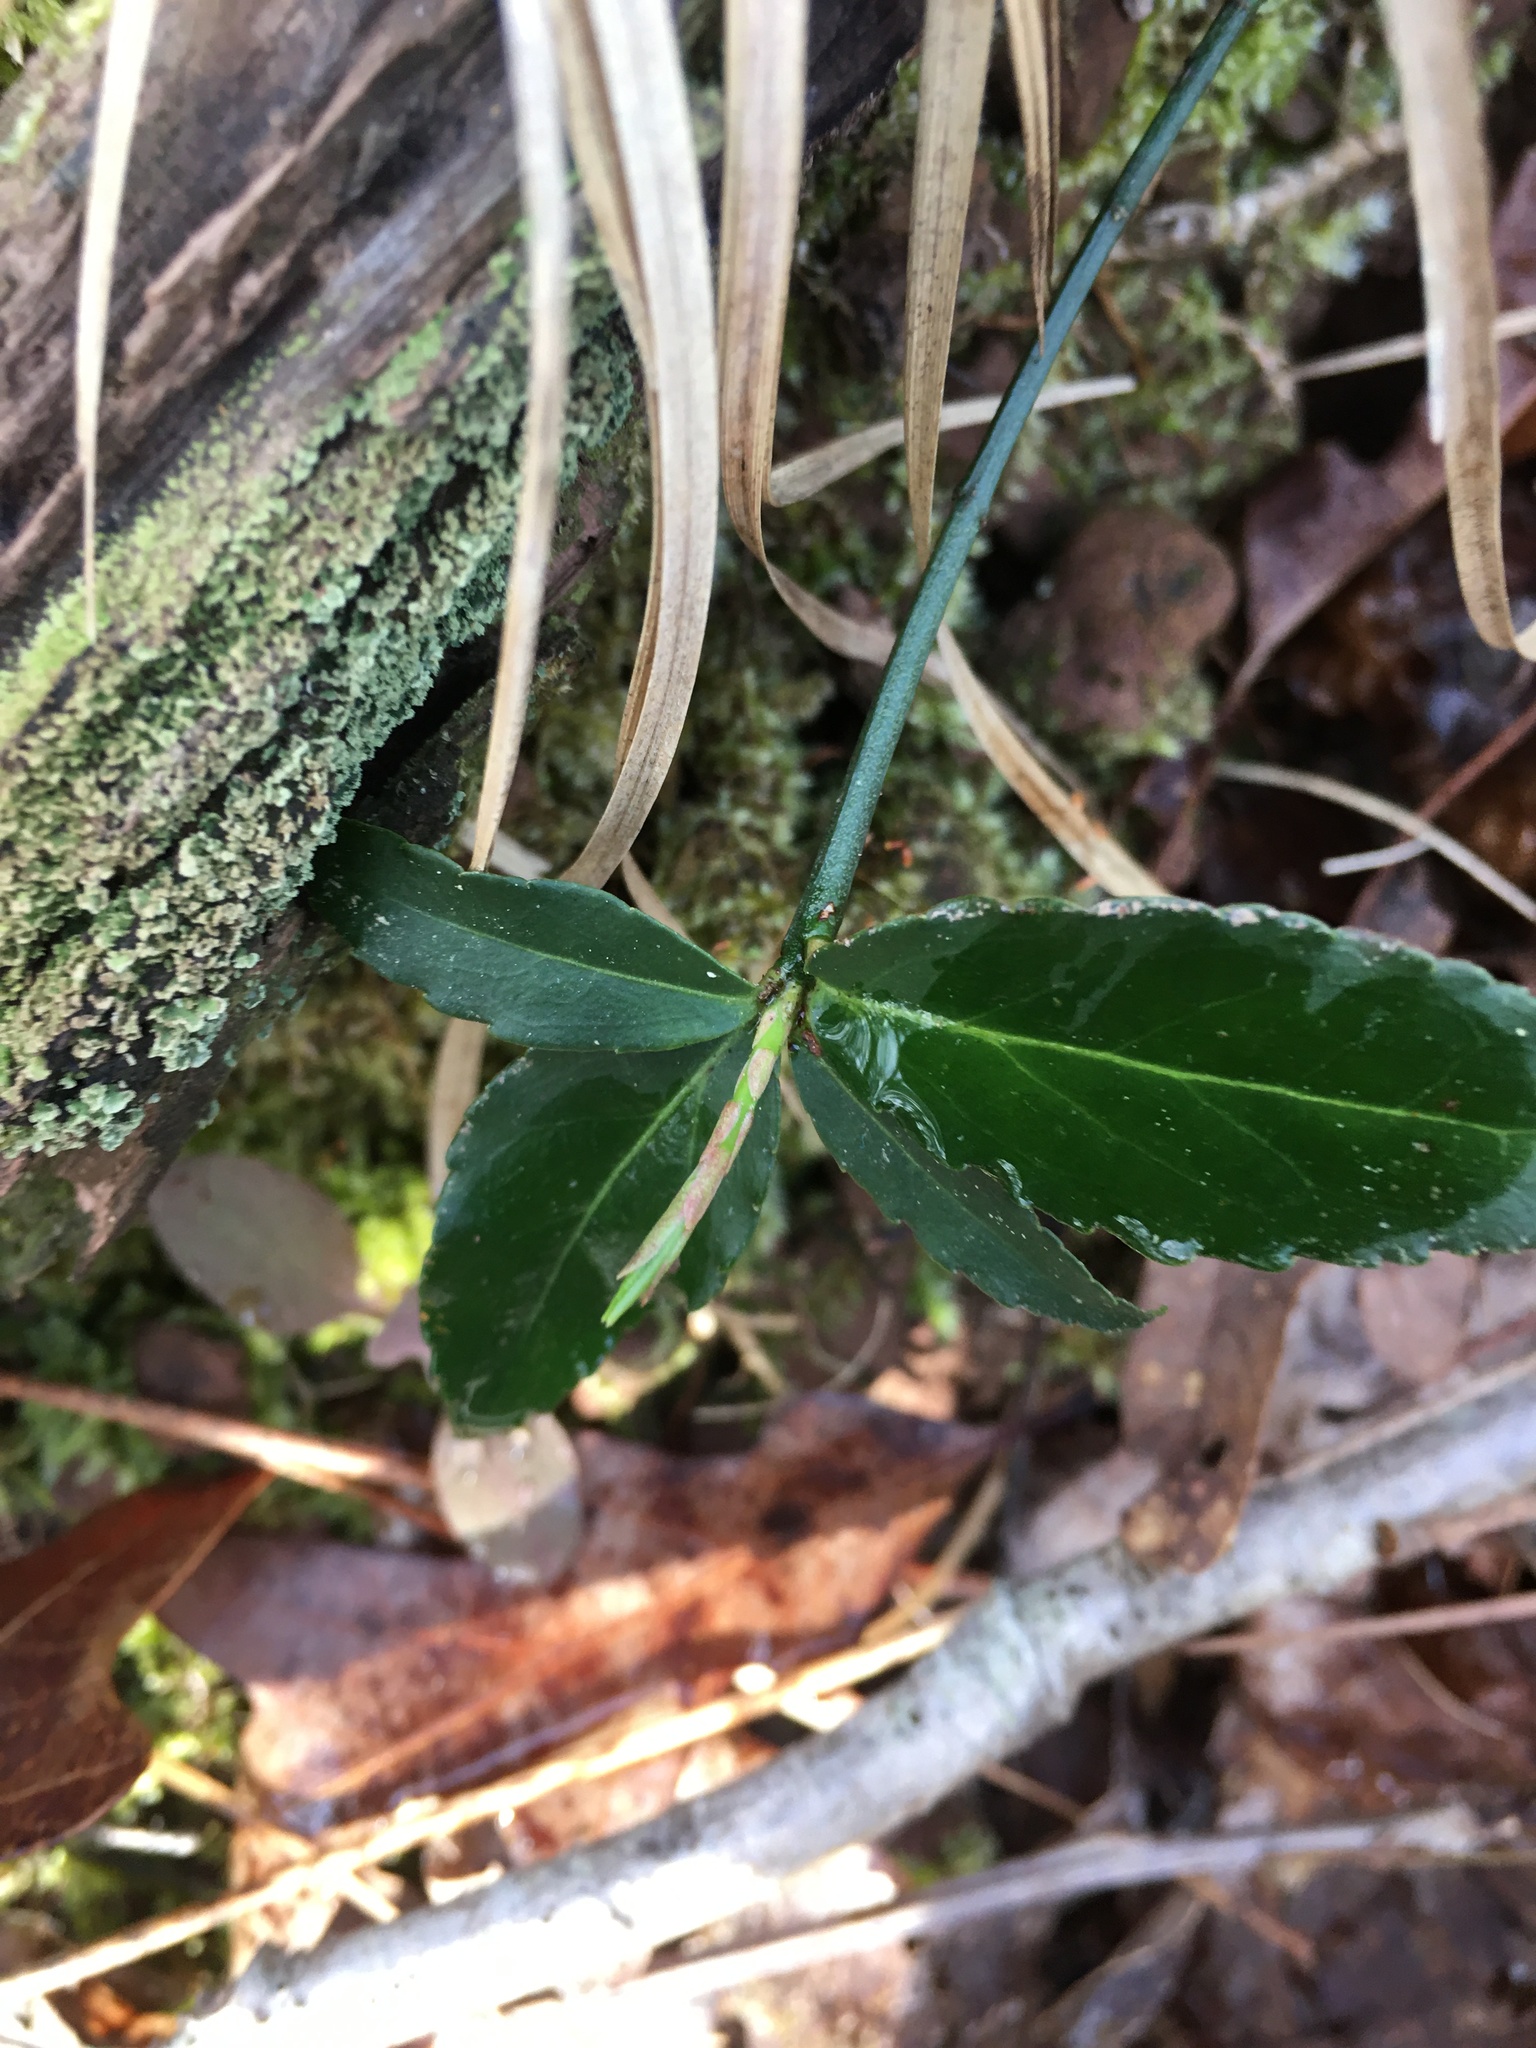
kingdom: Plantae
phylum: Tracheophyta
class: Magnoliopsida
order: Celastrales
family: Celastraceae
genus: Euonymus
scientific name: Euonymus americanus
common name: Bursting-heart
